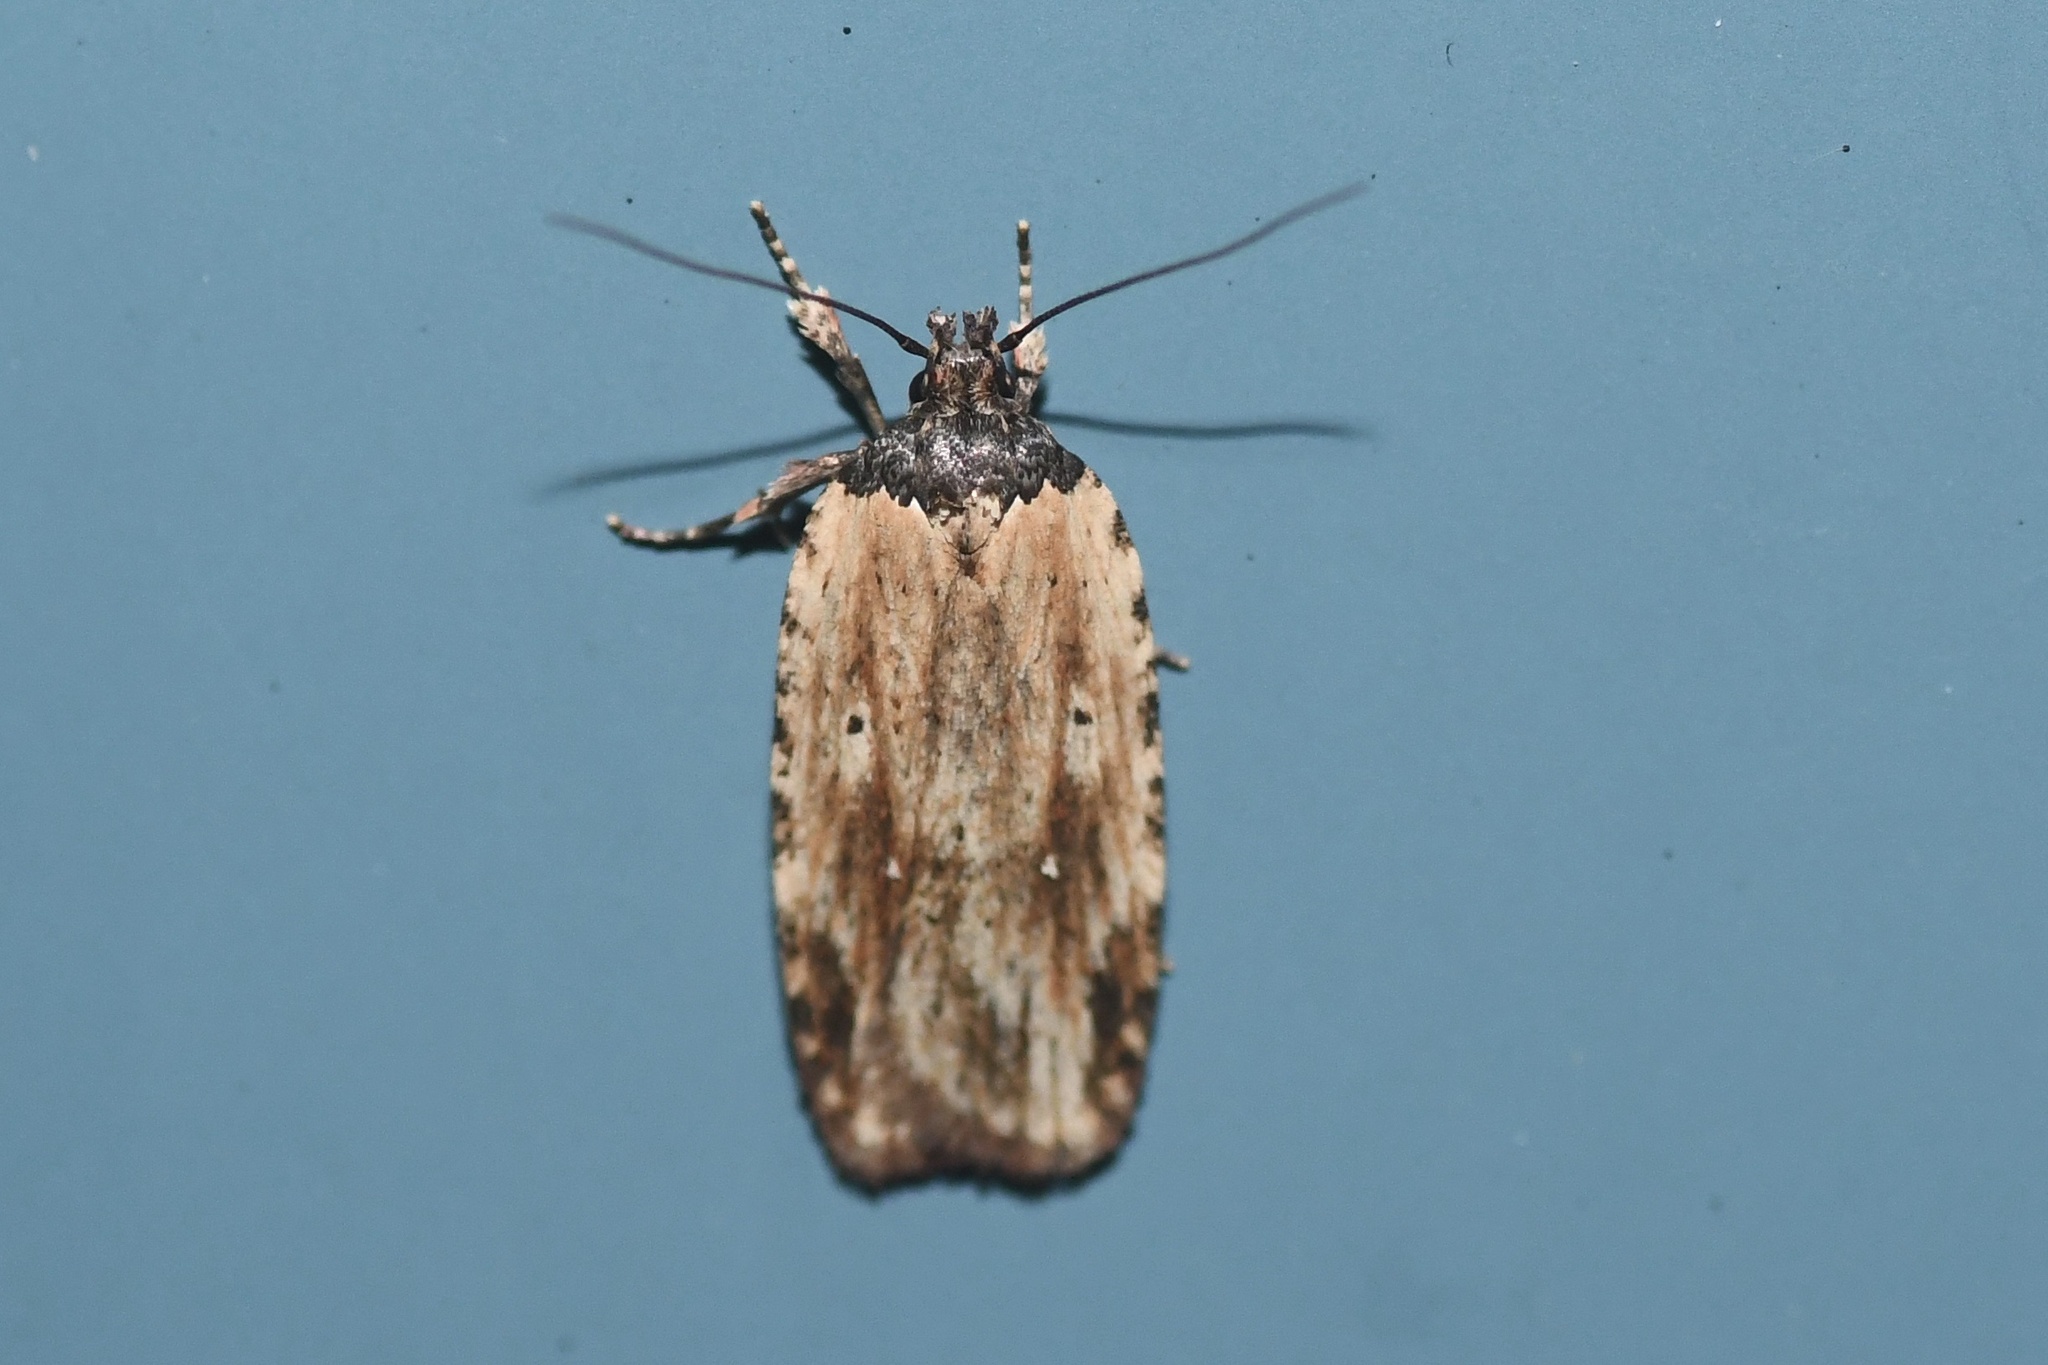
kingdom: Animalia
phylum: Arthropoda
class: Insecta
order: Lepidoptera
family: Depressariidae
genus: Agonopterix
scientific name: Agonopterix atrodorsella
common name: Beggartick leaffolder
